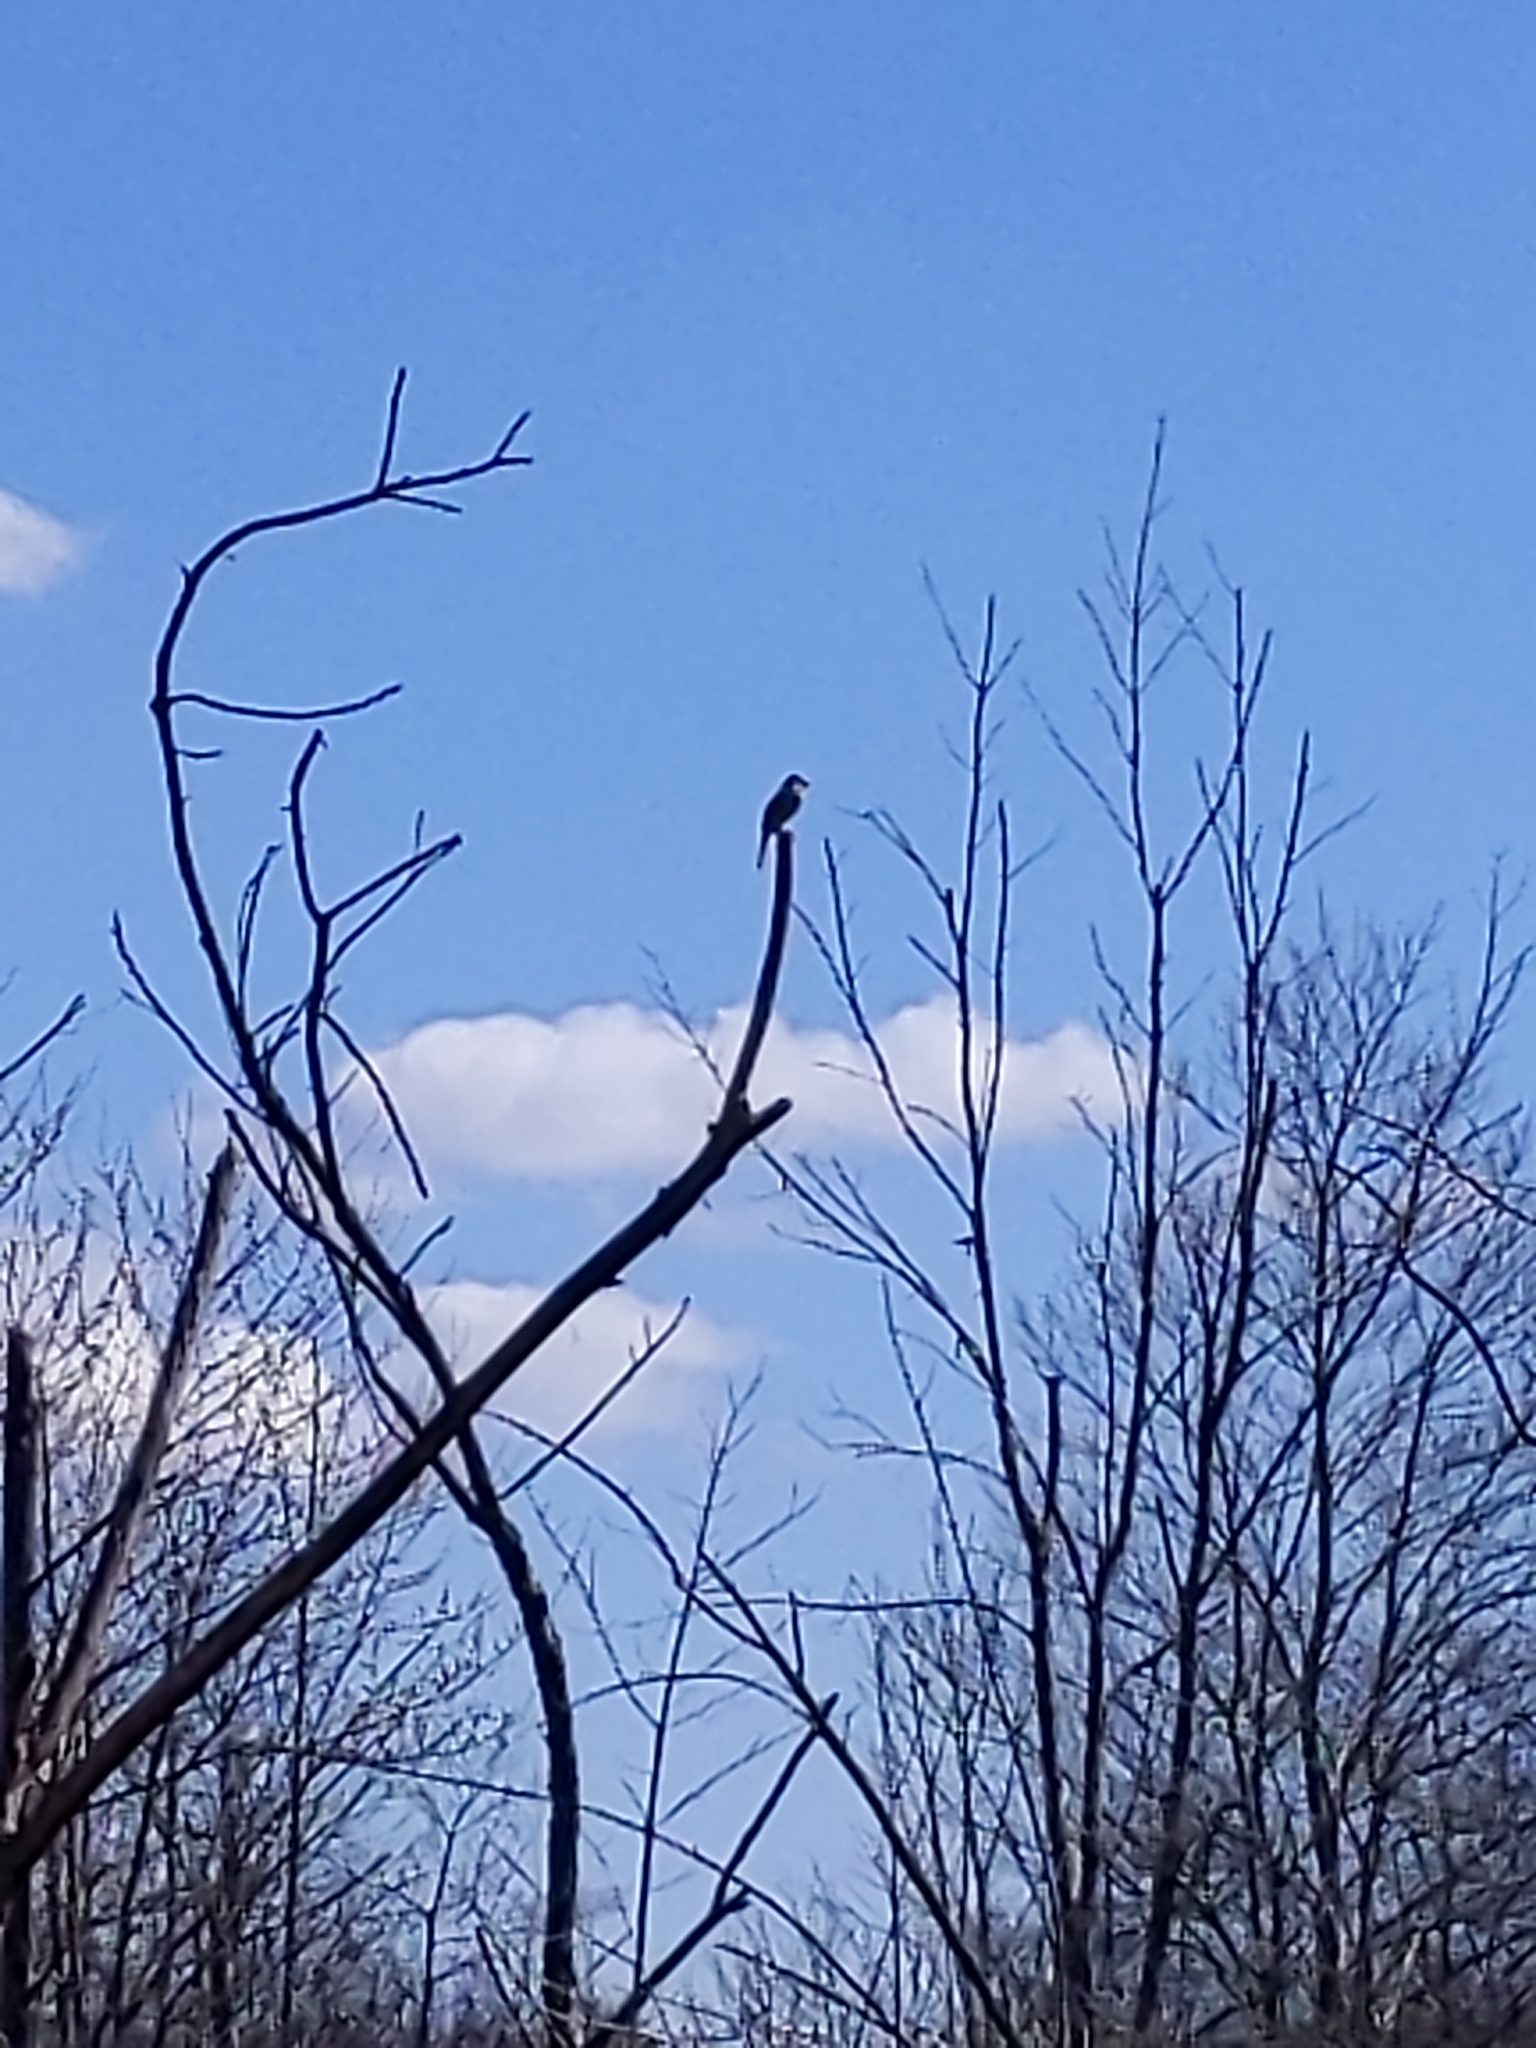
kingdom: Animalia
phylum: Chordata
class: Aves
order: Passeriformes
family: Passerellidae
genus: Melospiza
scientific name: Melospiza melodia
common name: Song sparrow
